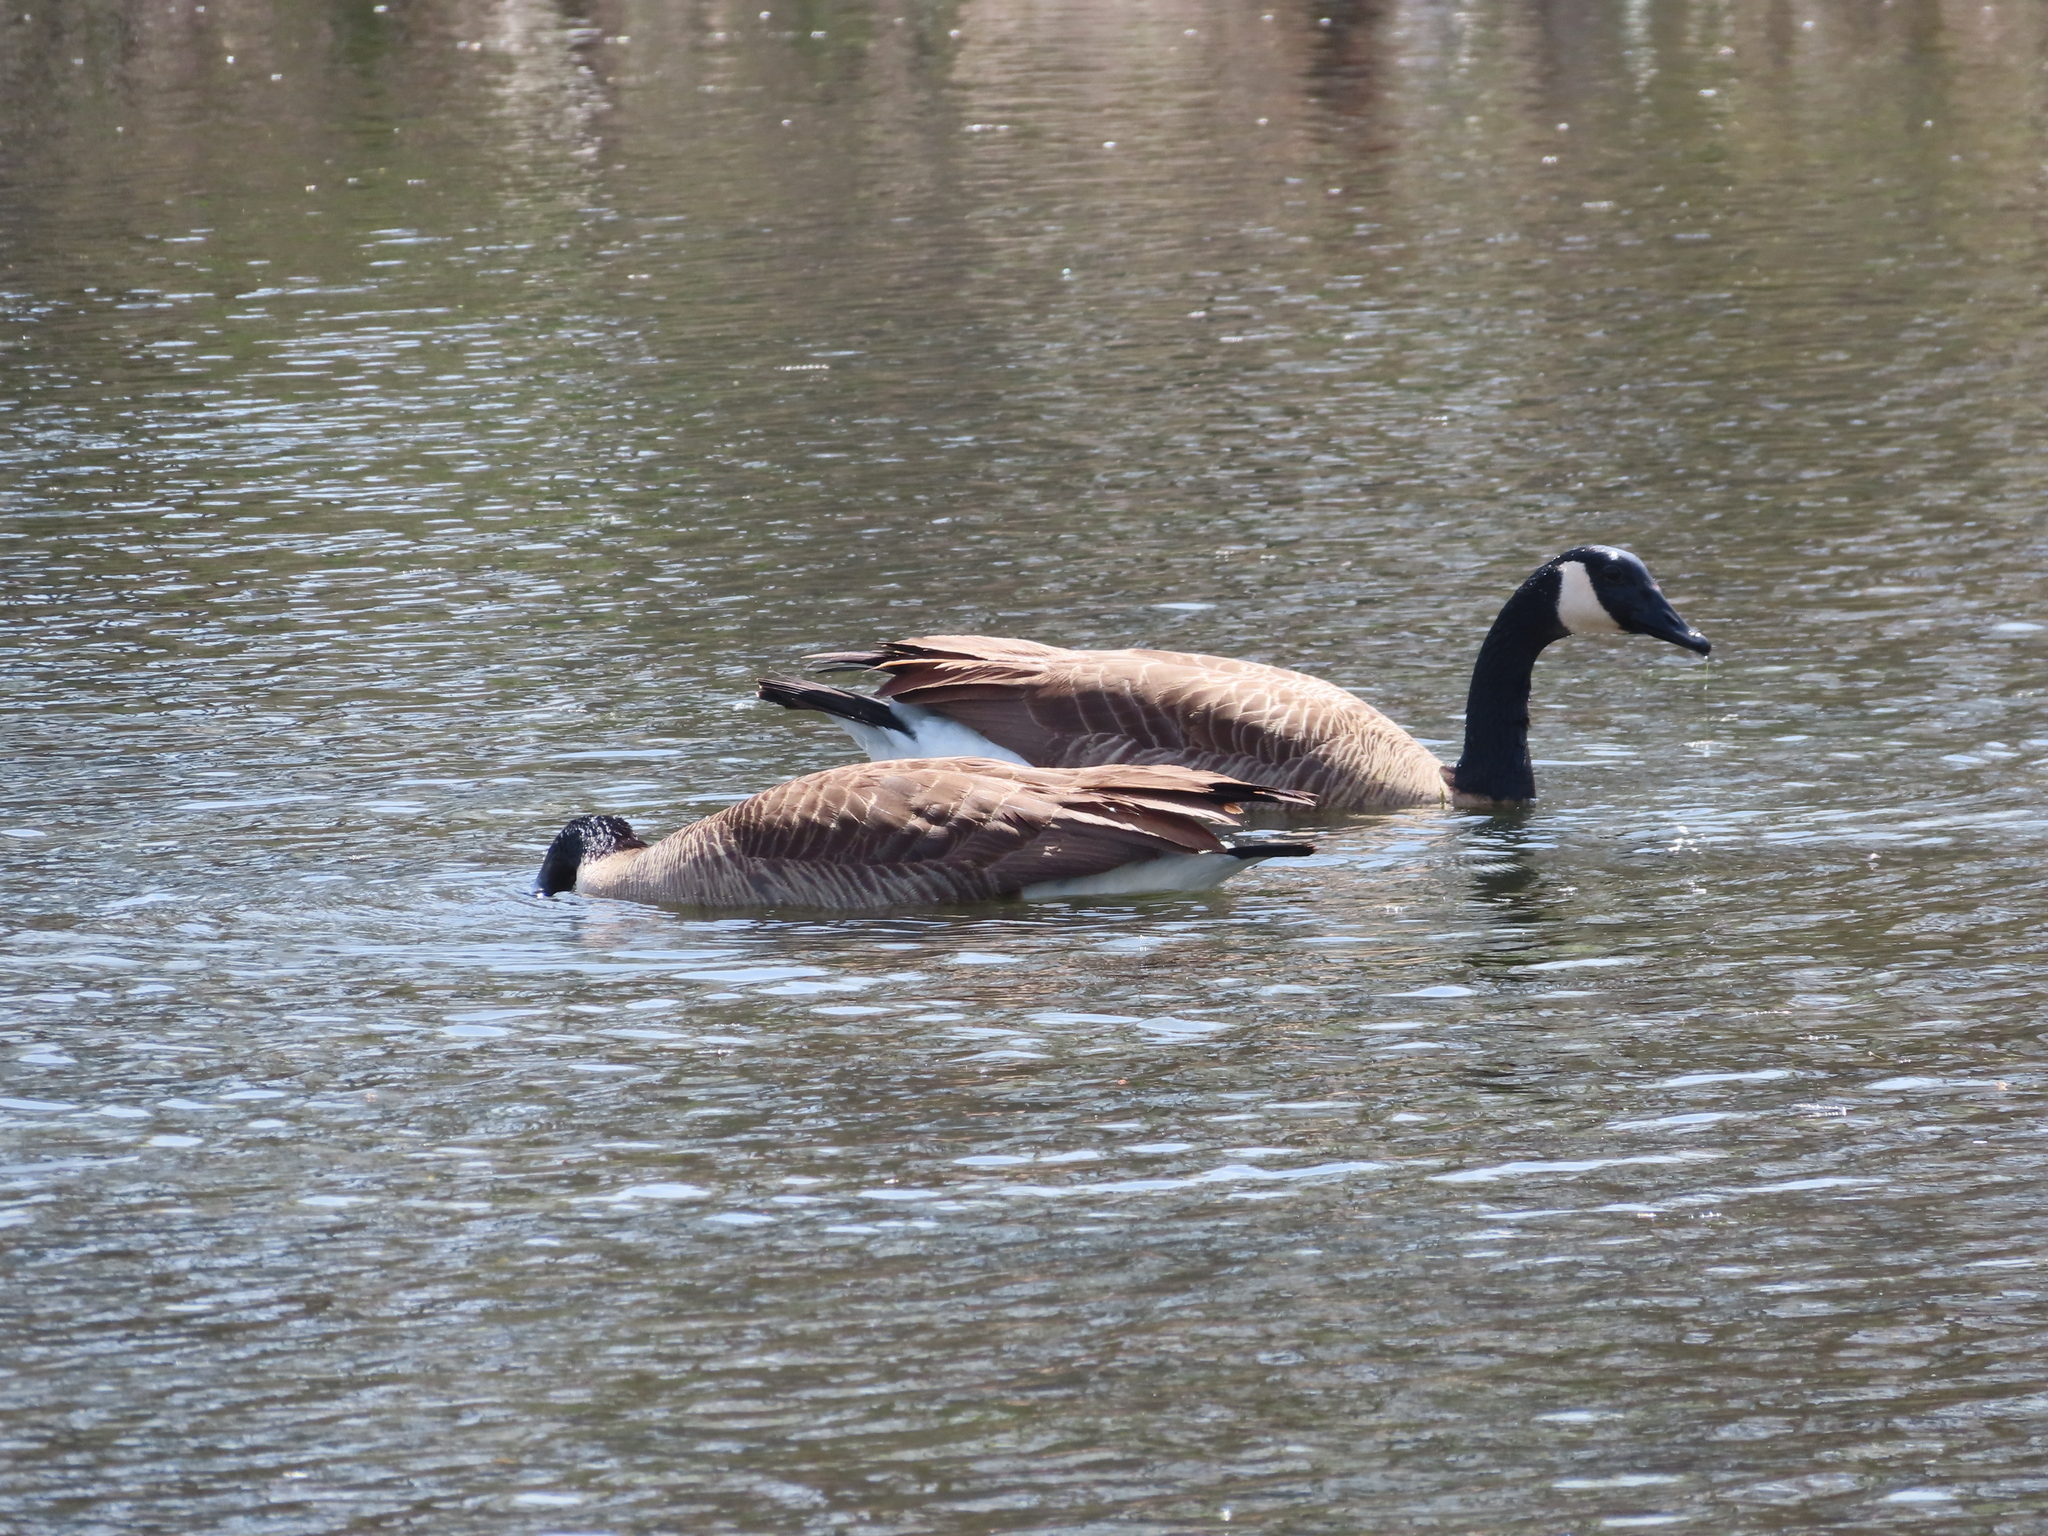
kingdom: Animalia
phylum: Chordata
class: Aves
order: Anseriformes
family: Anatidae
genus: Branta
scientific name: Branta canadensis
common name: Canada goose
